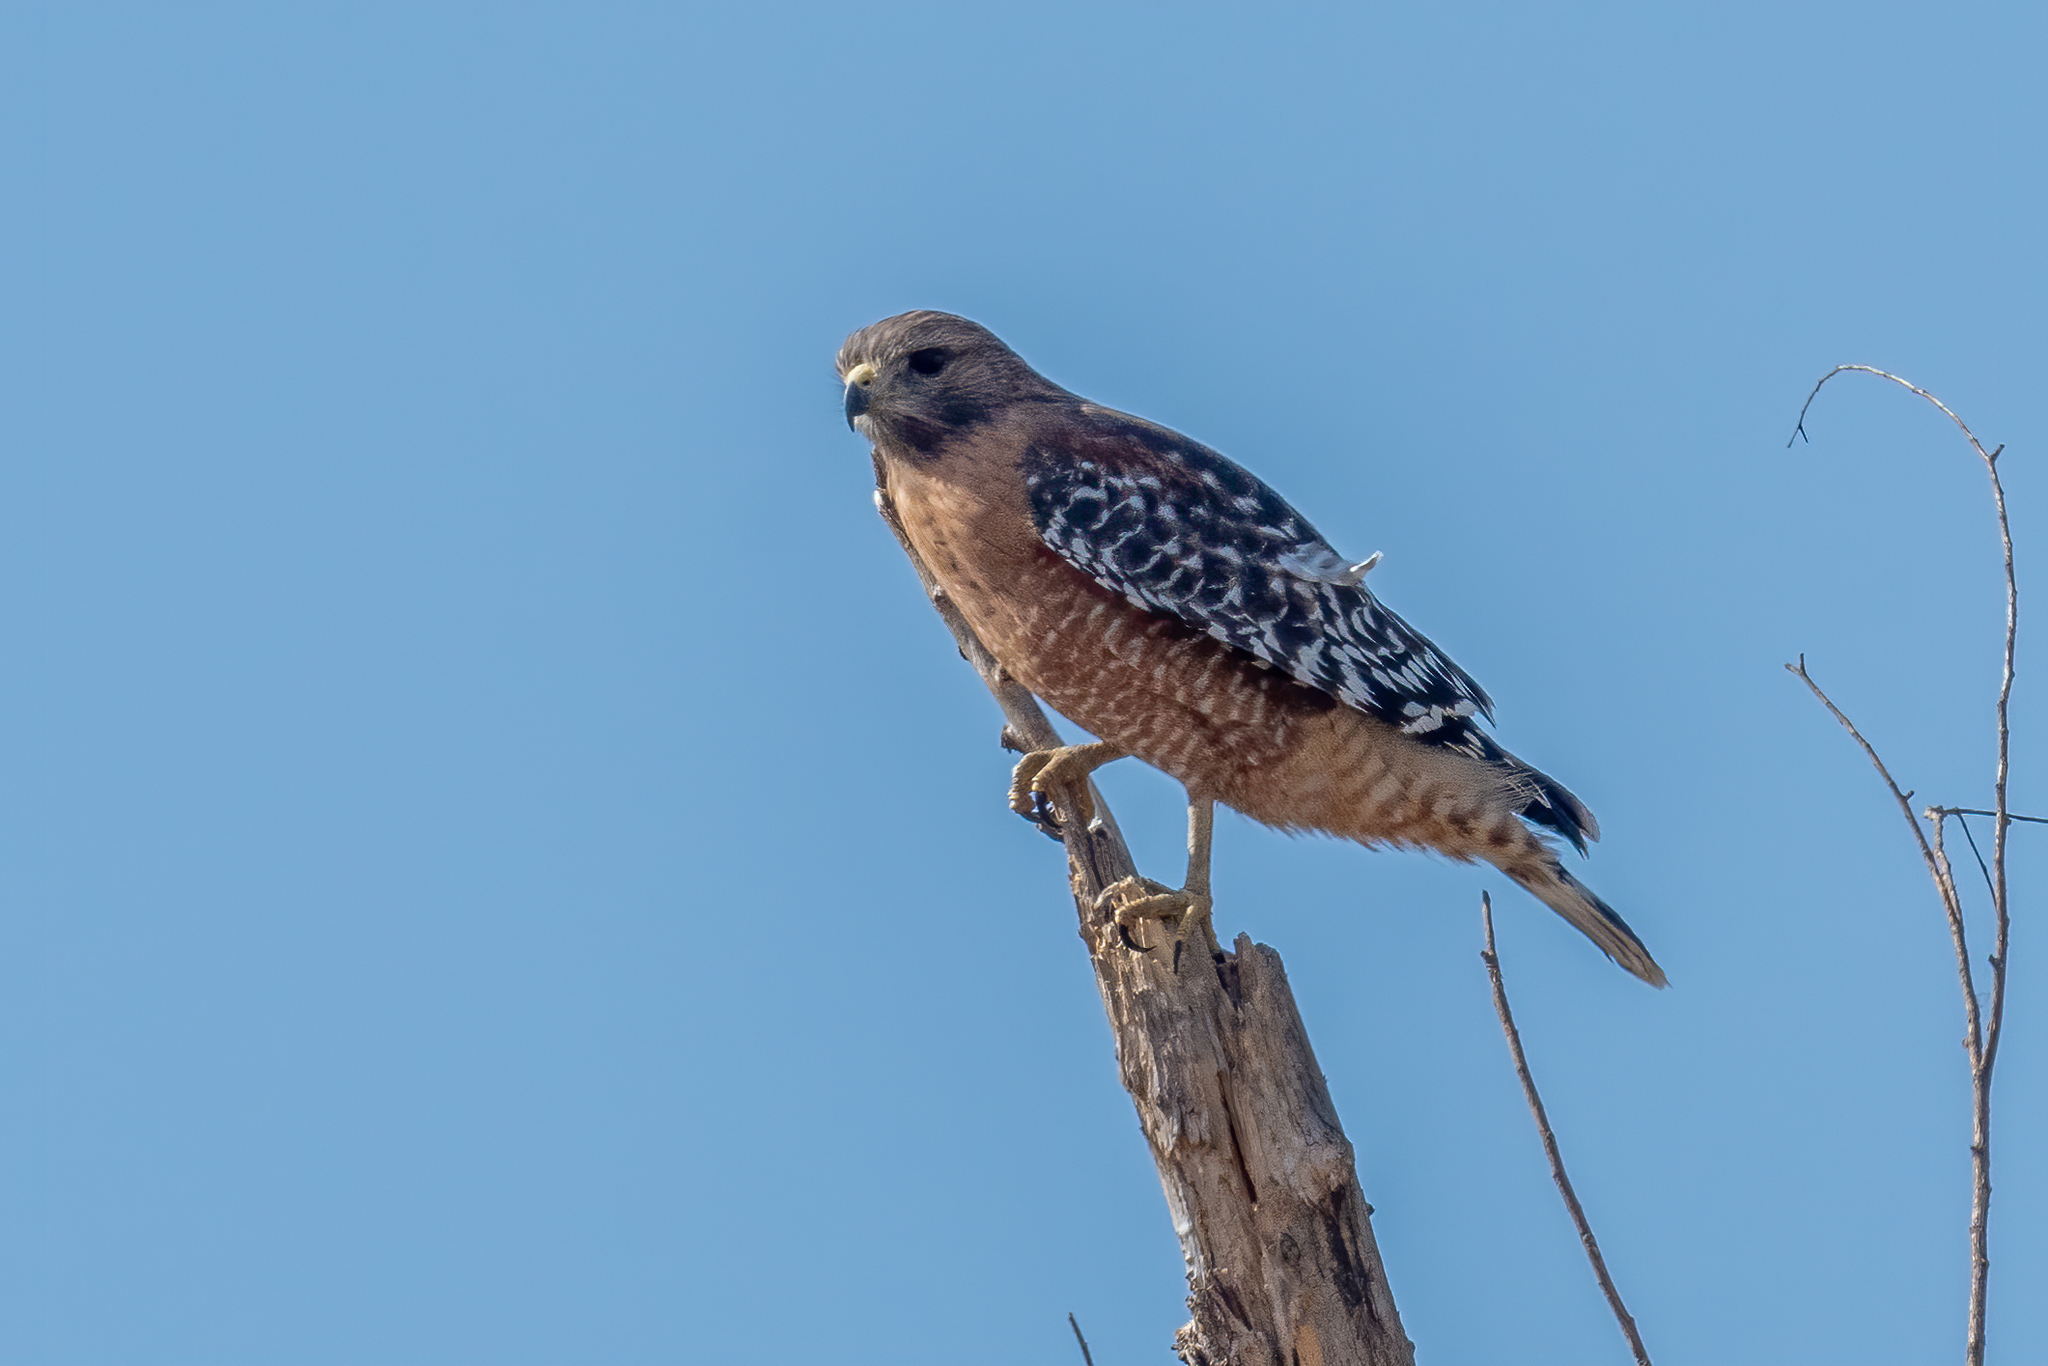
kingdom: Animalia
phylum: Chordata
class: Aves
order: Accipitriformes
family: Accipitridae
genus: Buteo
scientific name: Buteo lineatus
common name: Red-shouldered hawk
